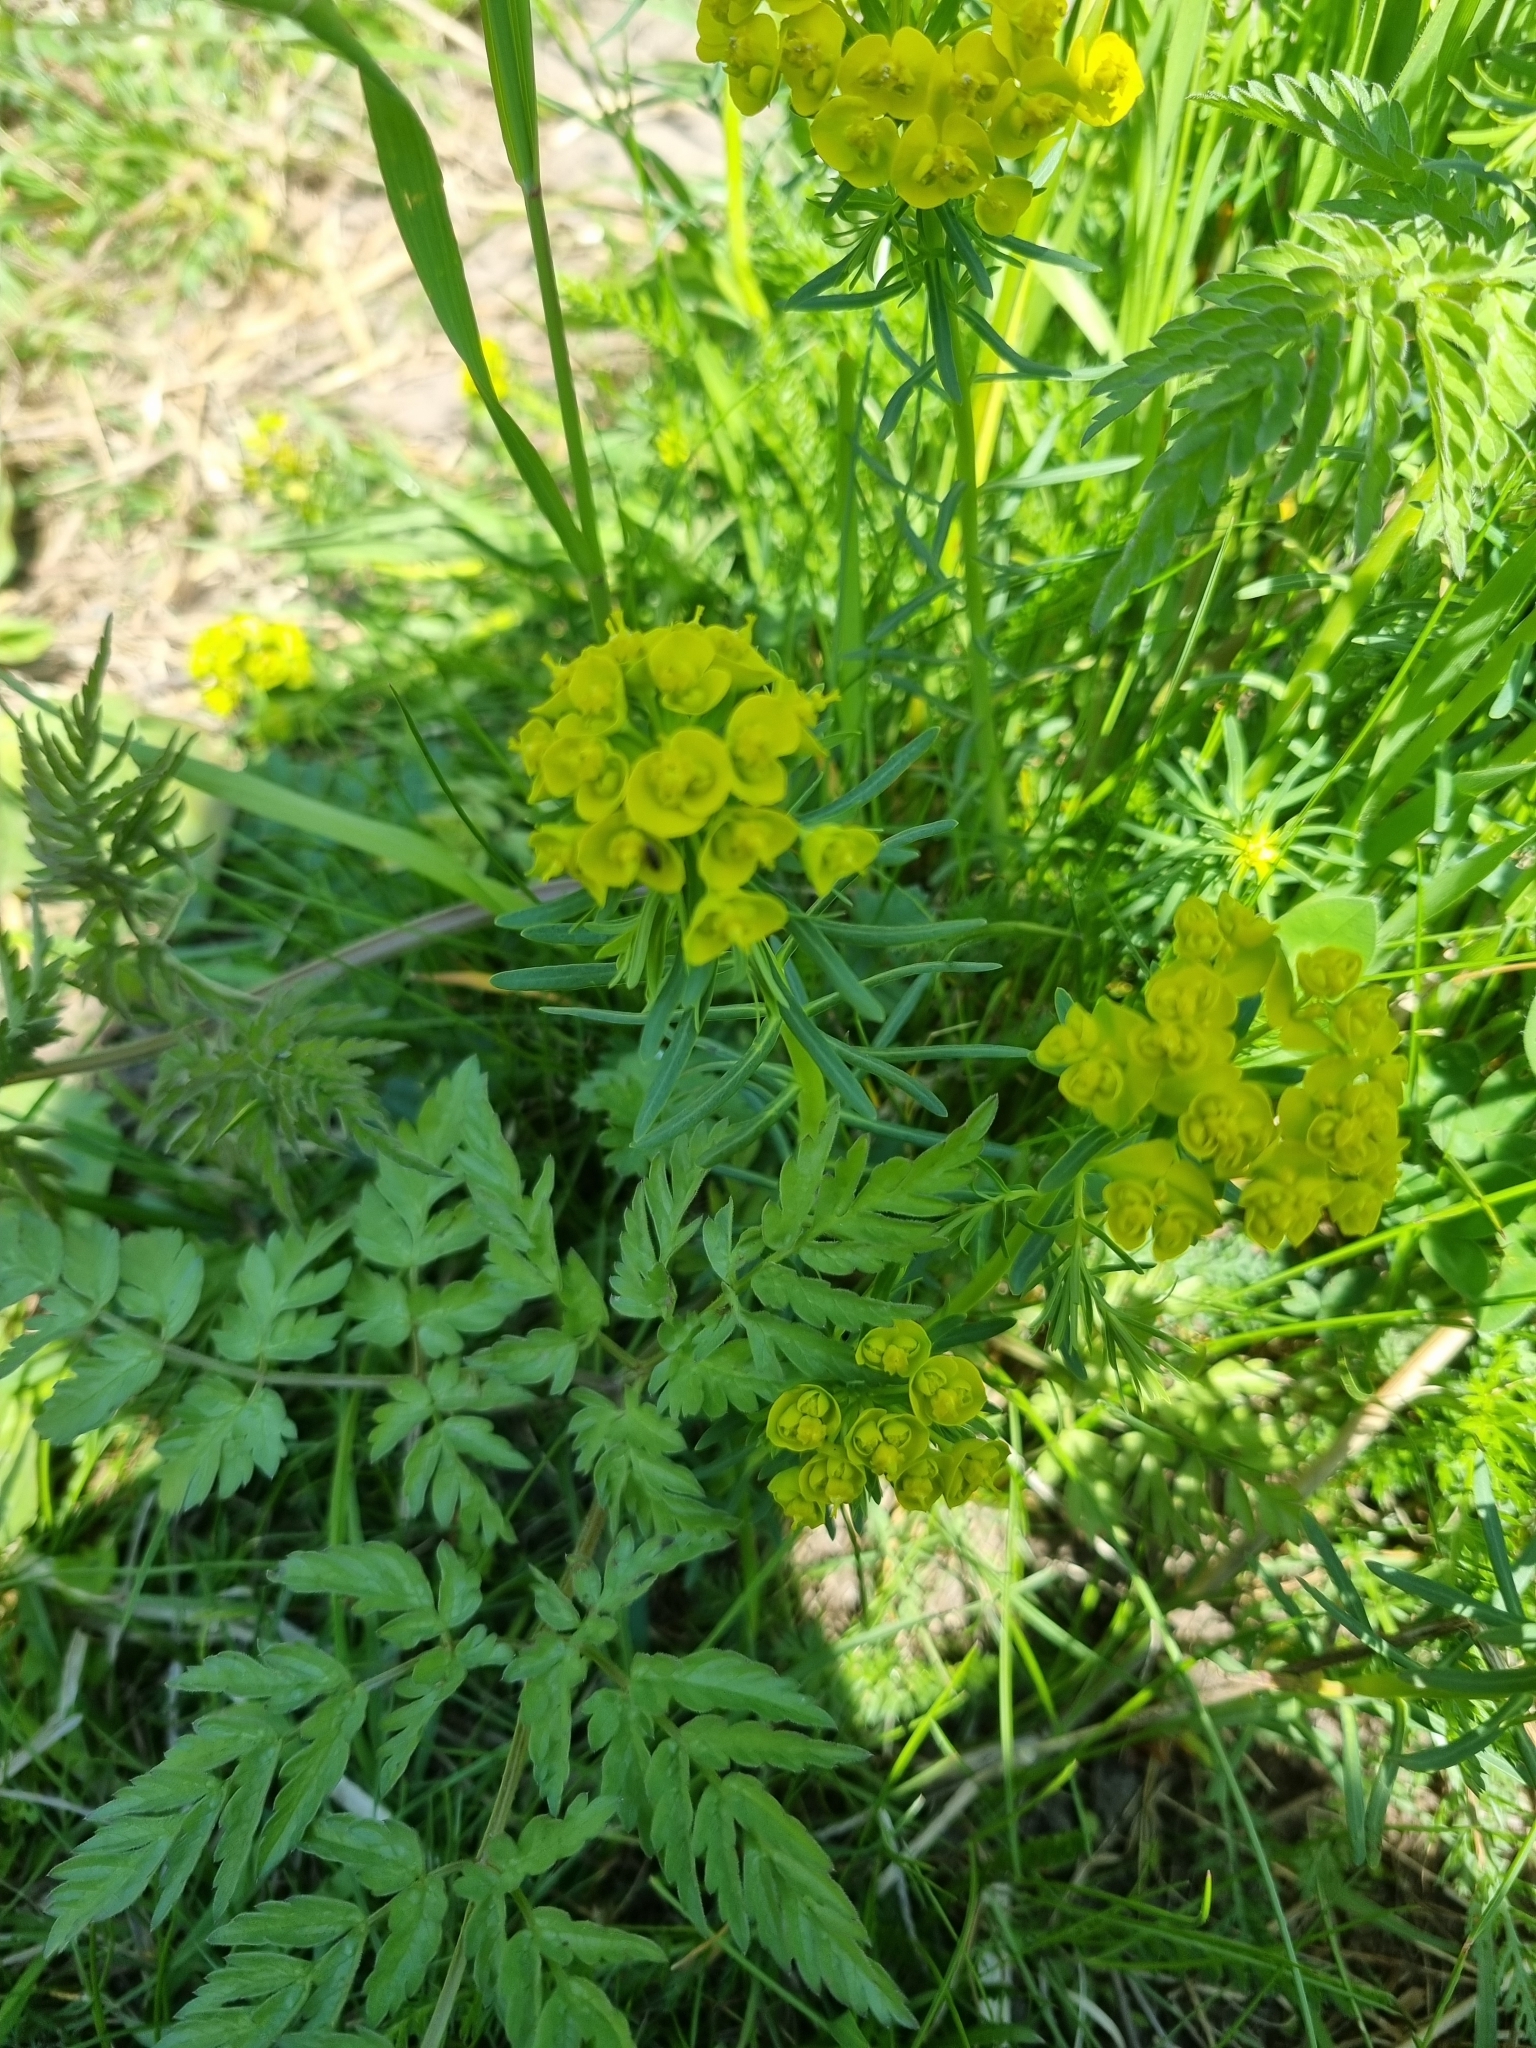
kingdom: Plantae
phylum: Tracheophyta
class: Magnoliopsida
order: Malpighiales
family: Euphorbiaceae
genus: Euphorbia
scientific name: Euphorbia cyparissias
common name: Cypress spurge
